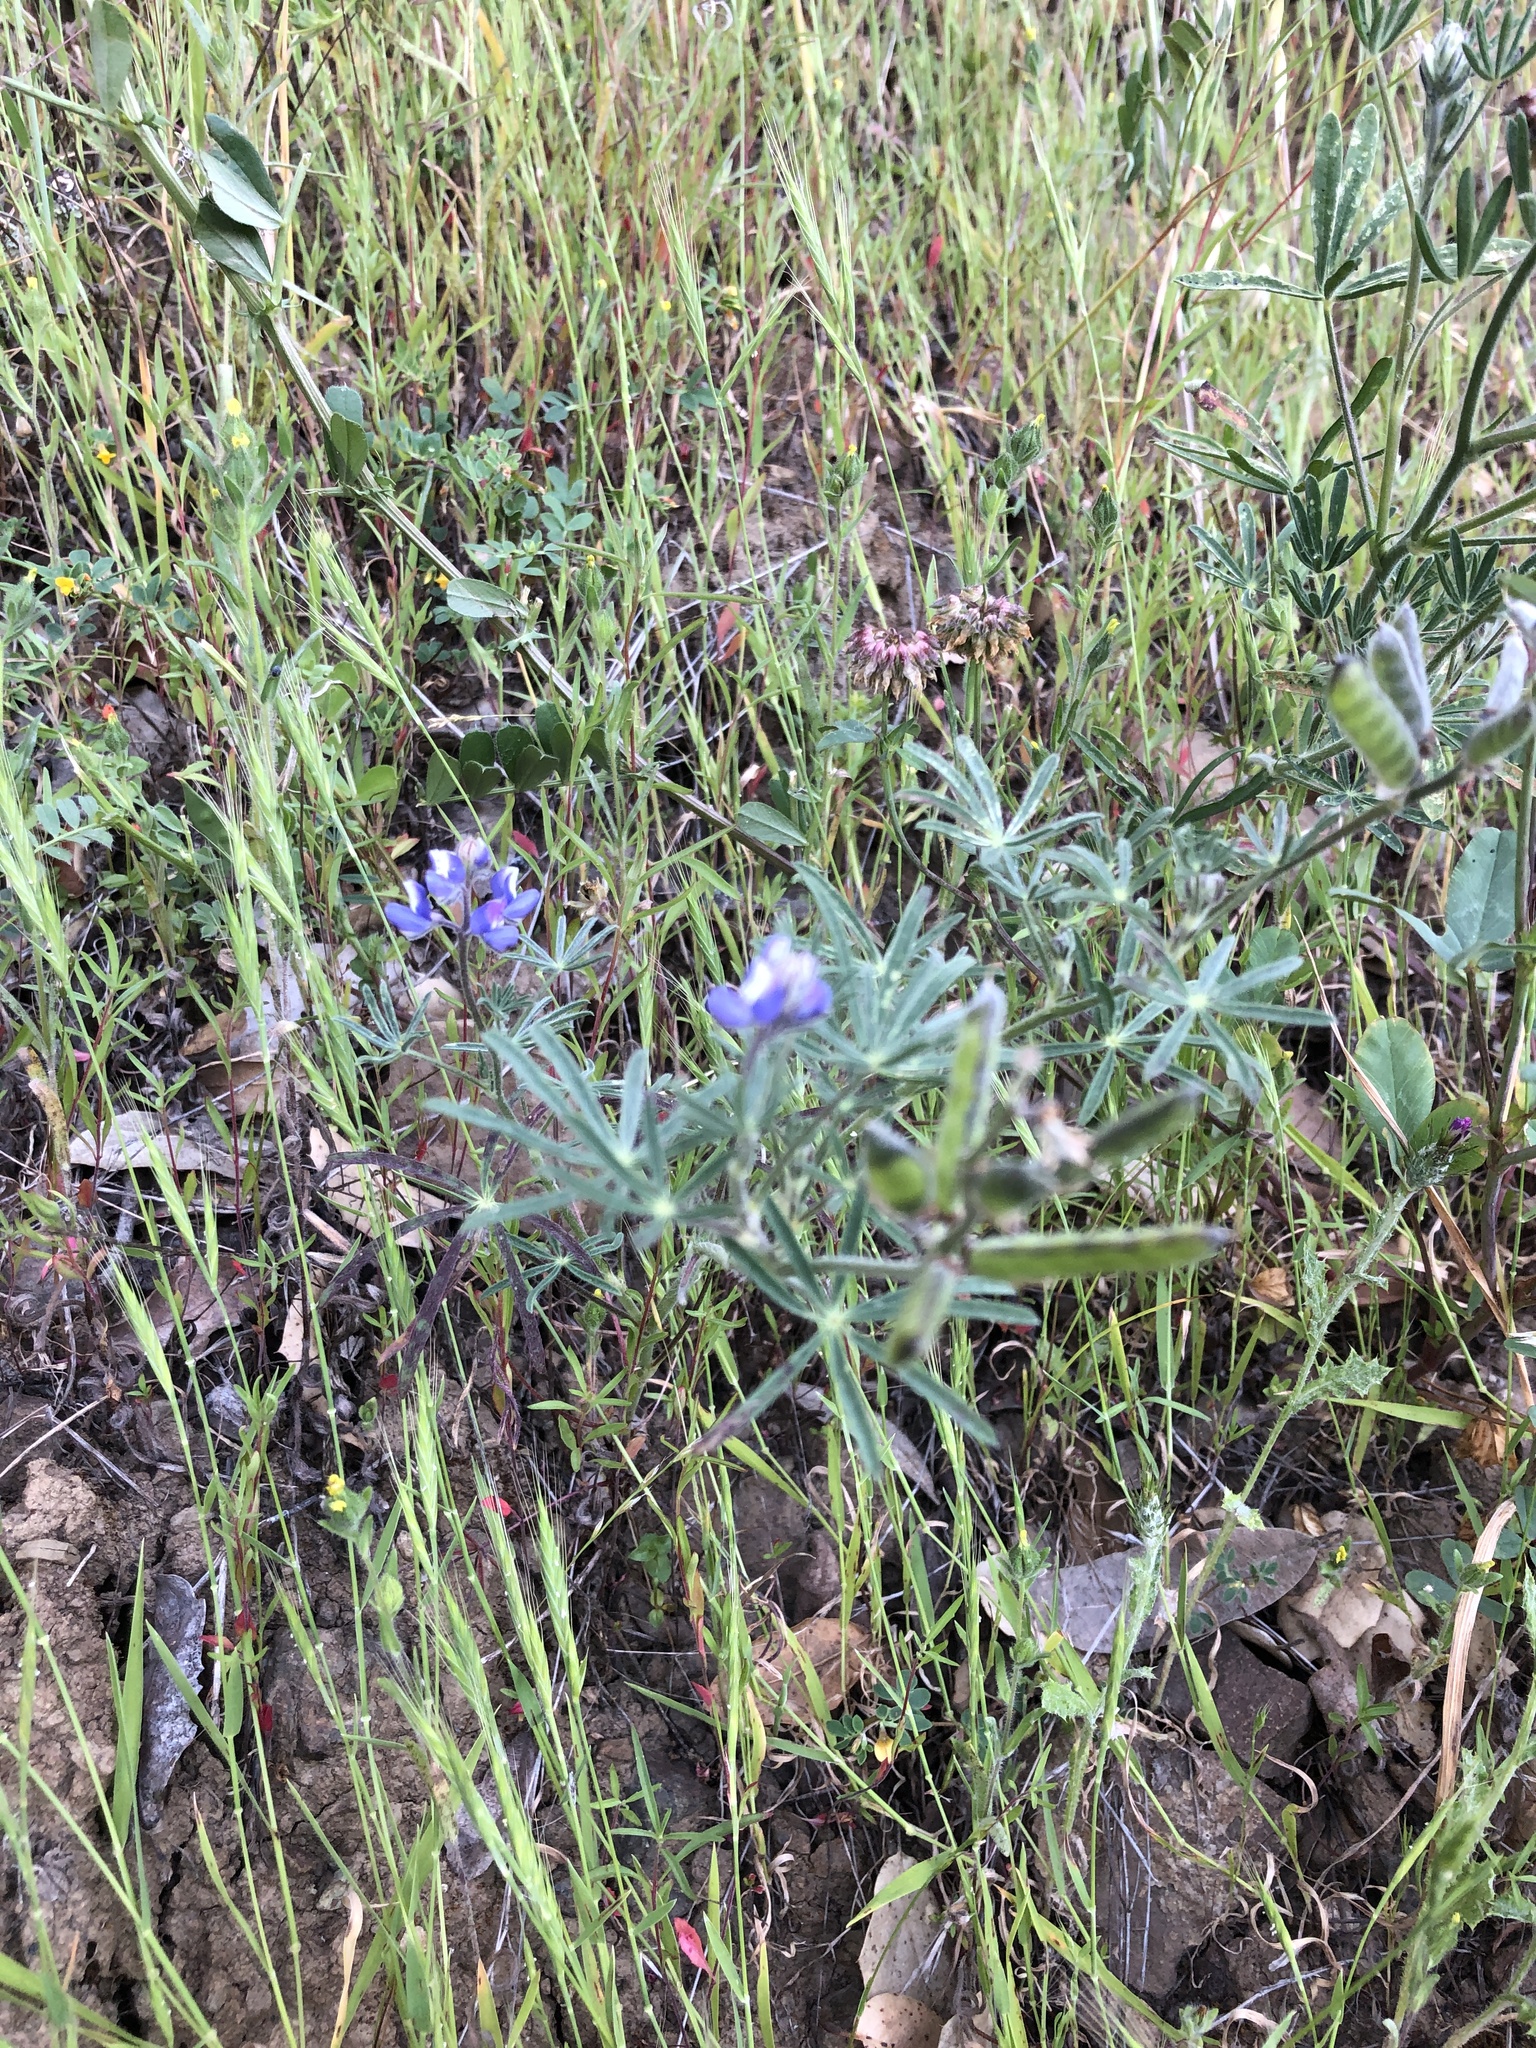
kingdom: Plantae
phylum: Tracheophyta
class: Magnoliopsida
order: Fabales
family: Fabaceae
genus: Lupinus
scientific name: Lupinus bicolor
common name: Miniature lupine
